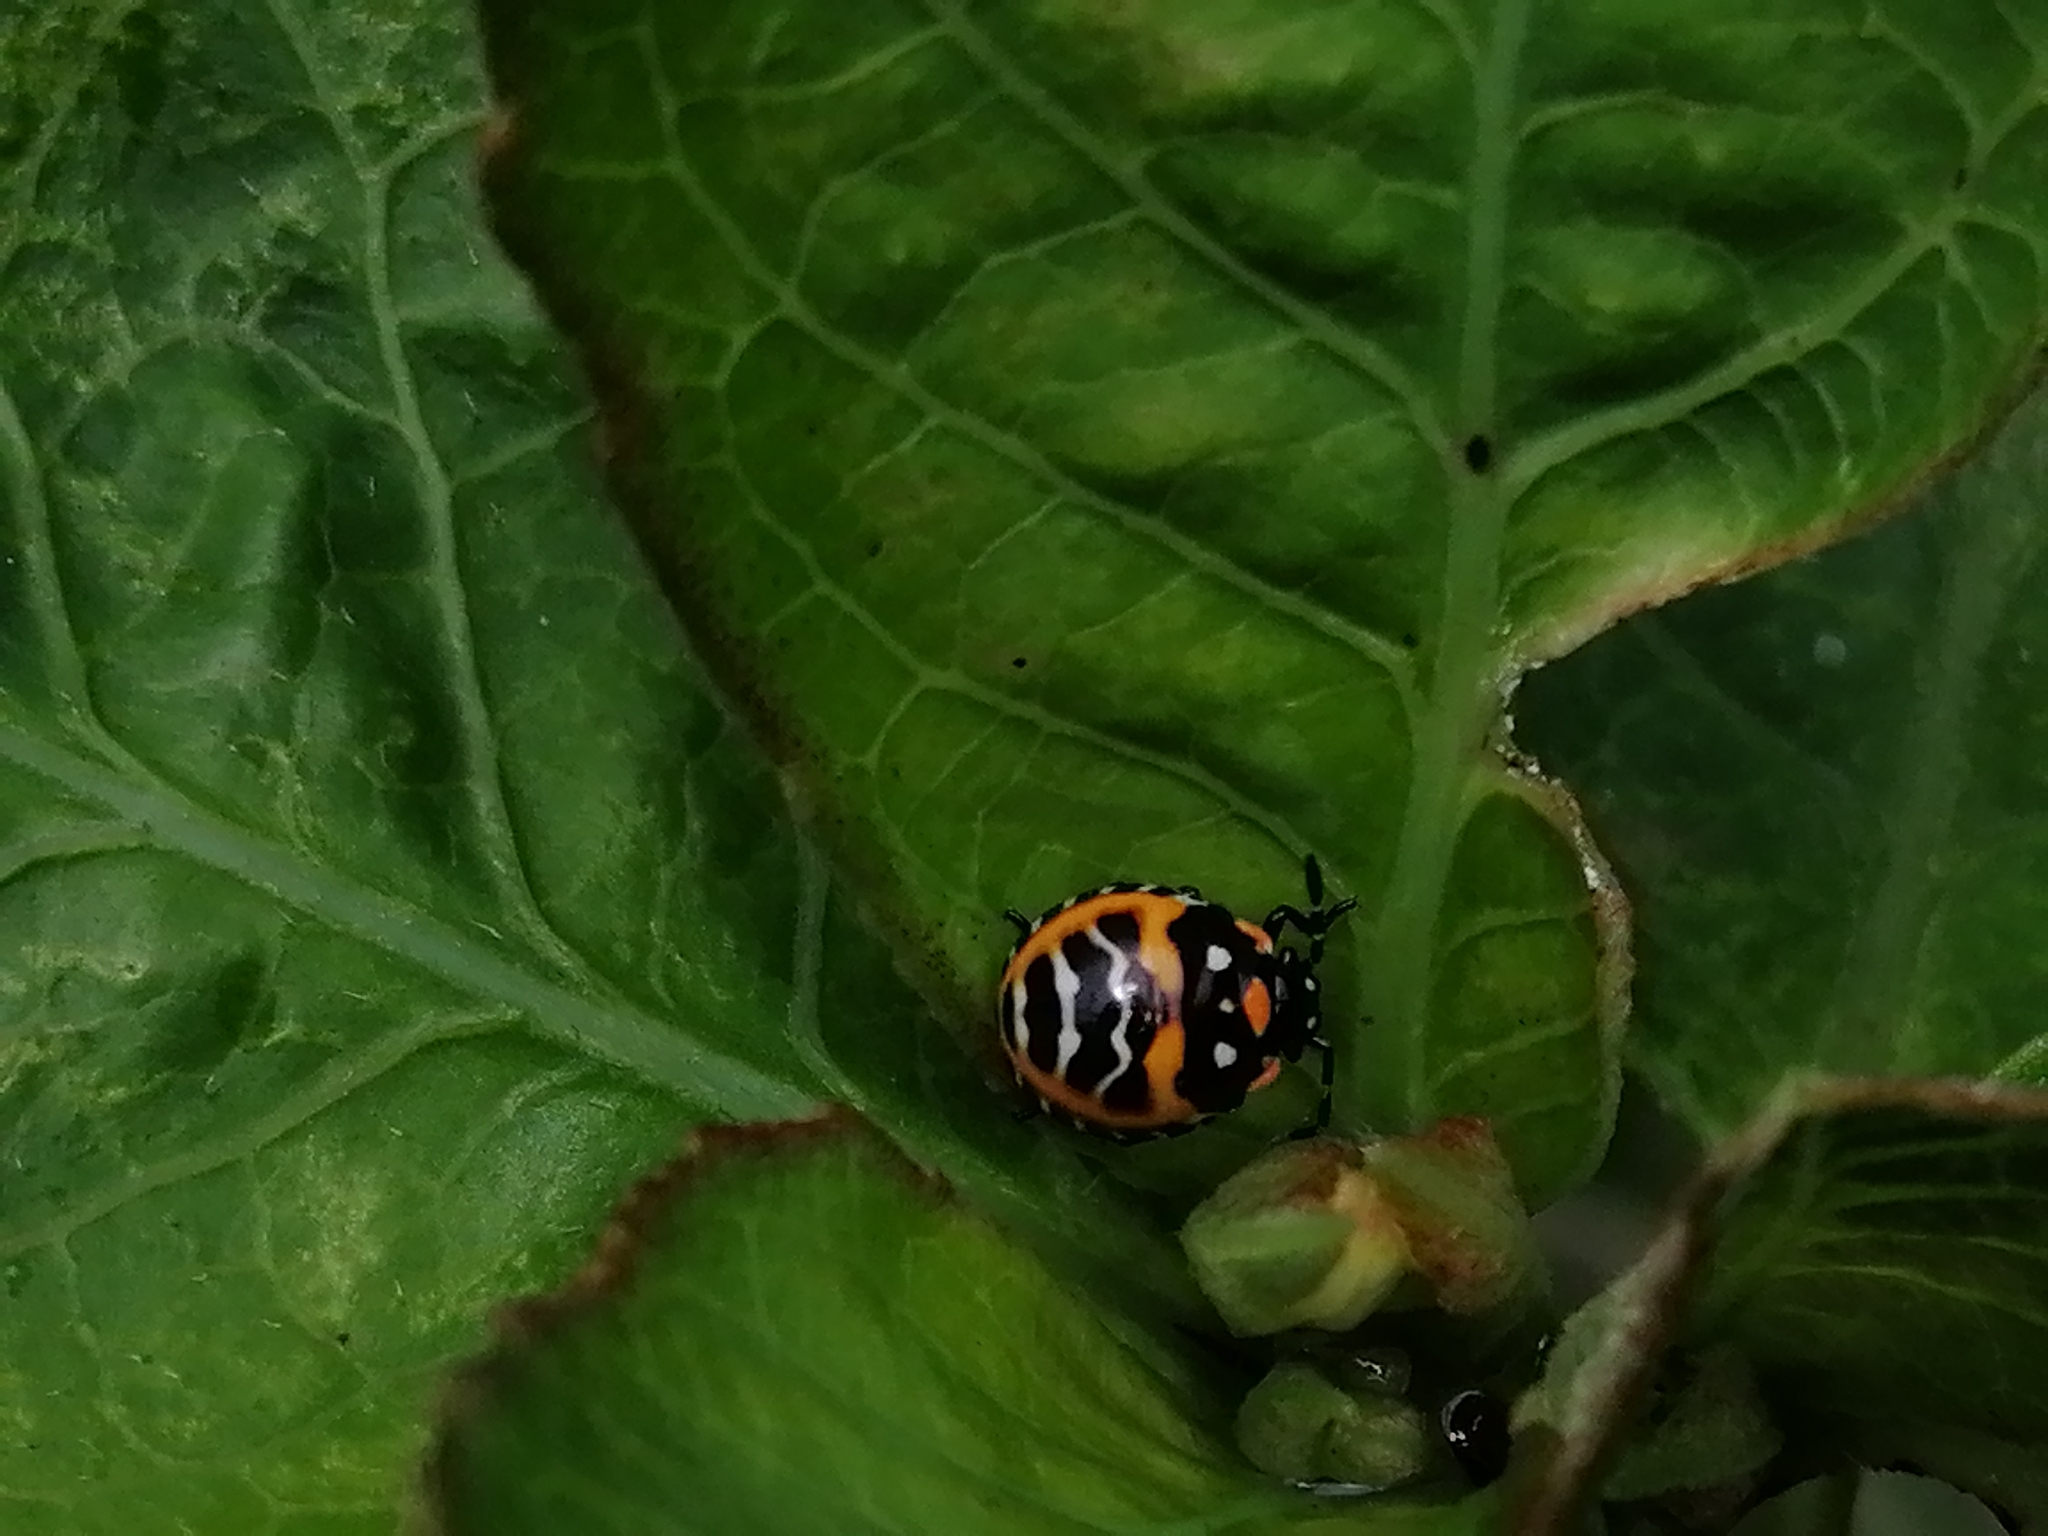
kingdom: Animalia
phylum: Arthropoda
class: Insecta
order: Hemiptera
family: Pentatomidae
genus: Murgantia
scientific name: Murgantia histrionica
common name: Harlequin bug
